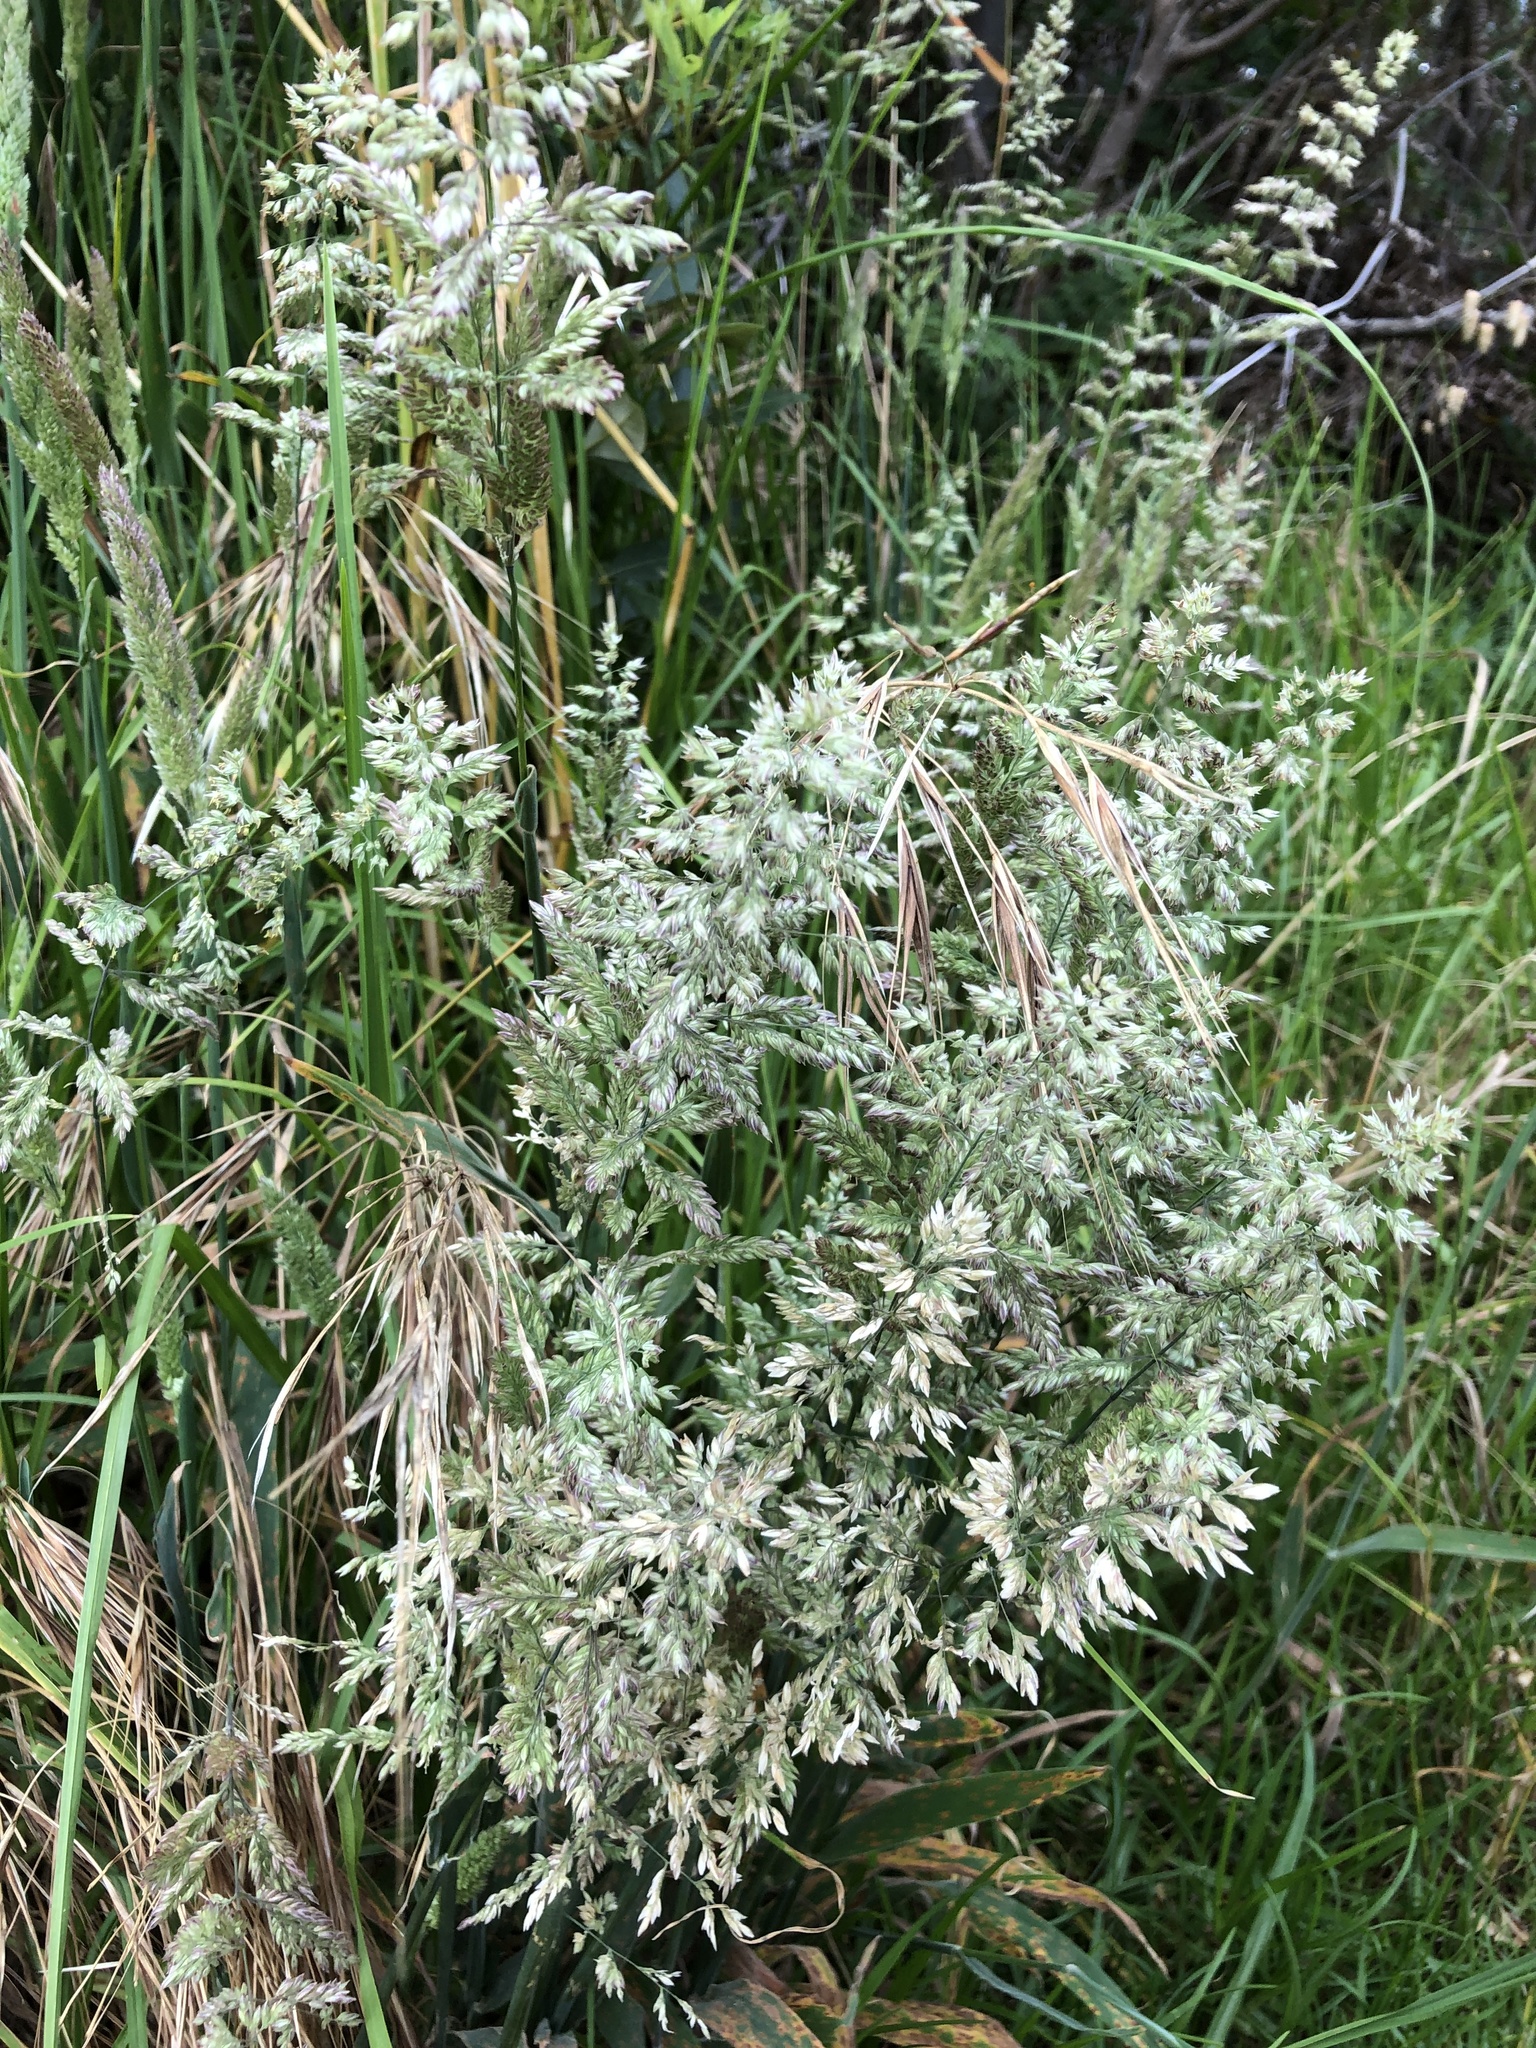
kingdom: Plantae
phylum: Tracheophyta
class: Liliopsida
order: Poales
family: Poaceae
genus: Holcus
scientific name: Holcus lanatus
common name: Yorkshire-fog
